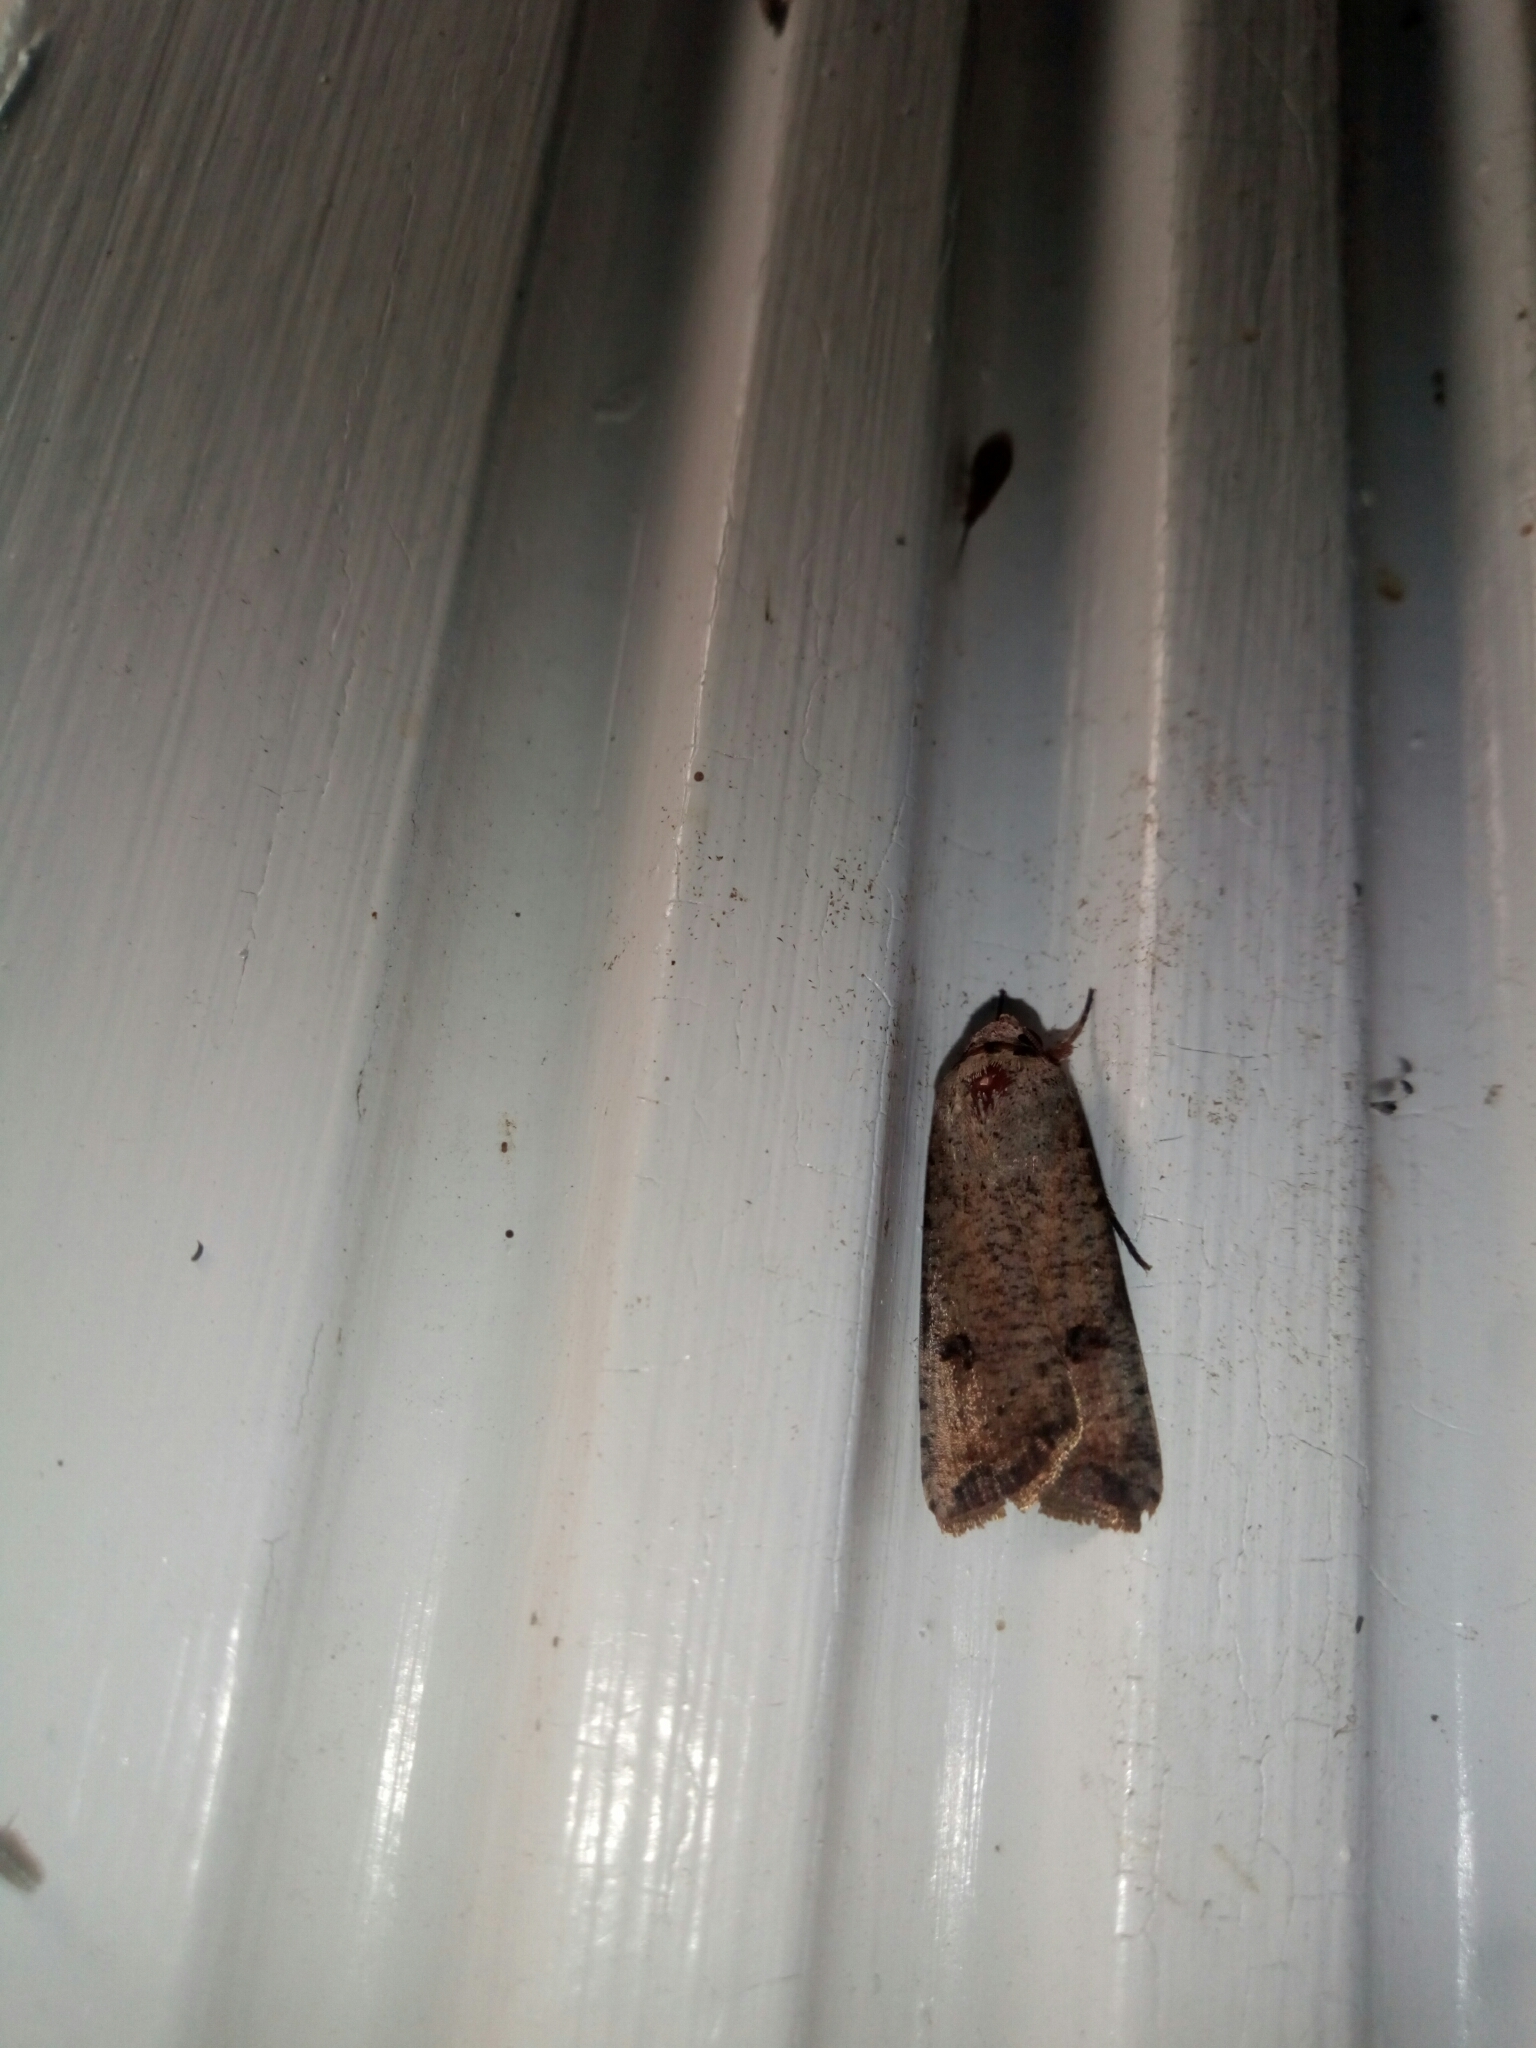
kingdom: Animalia
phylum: Arthropoda
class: Insecta
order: Lepidoptera
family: Noctuidae
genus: Anicla
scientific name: Anicla infecta
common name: Green cutworm
